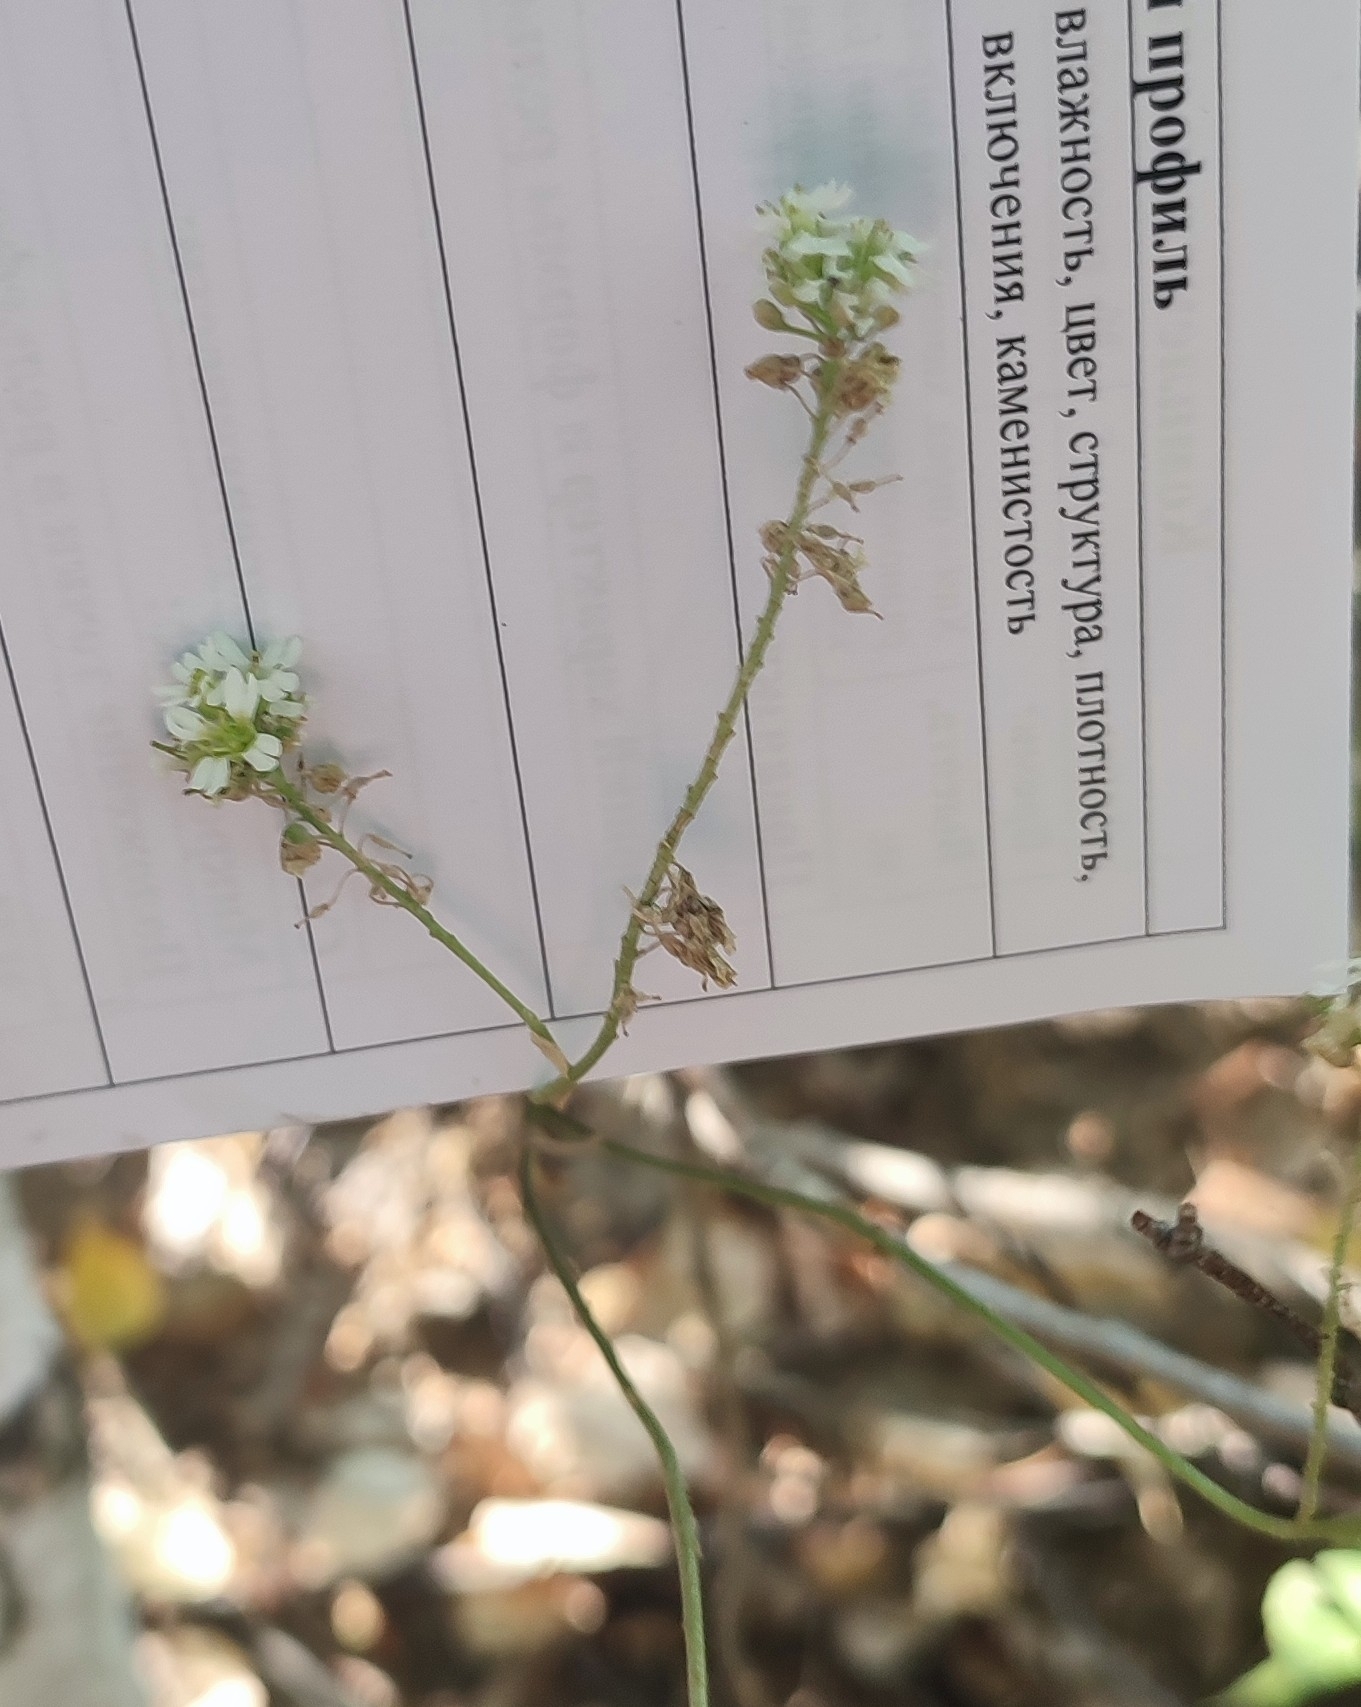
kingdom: Plantae
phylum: Tracheophyta
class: Magnoliopsida
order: Brassicales
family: Brassicaceae
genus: Berteroa
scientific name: Berteroa incana
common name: Hoary alison
